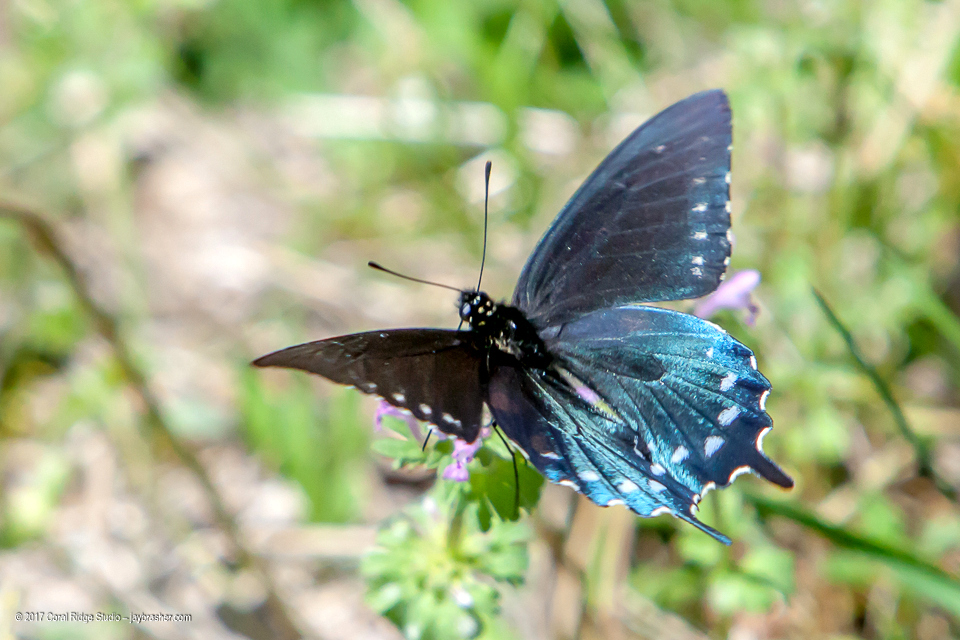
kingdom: Animalia
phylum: Arthropoda
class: Insecta
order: Lepidoptera
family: Papilionidae
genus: Battus
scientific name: Battus philenor
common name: Pipevine swallowtail
